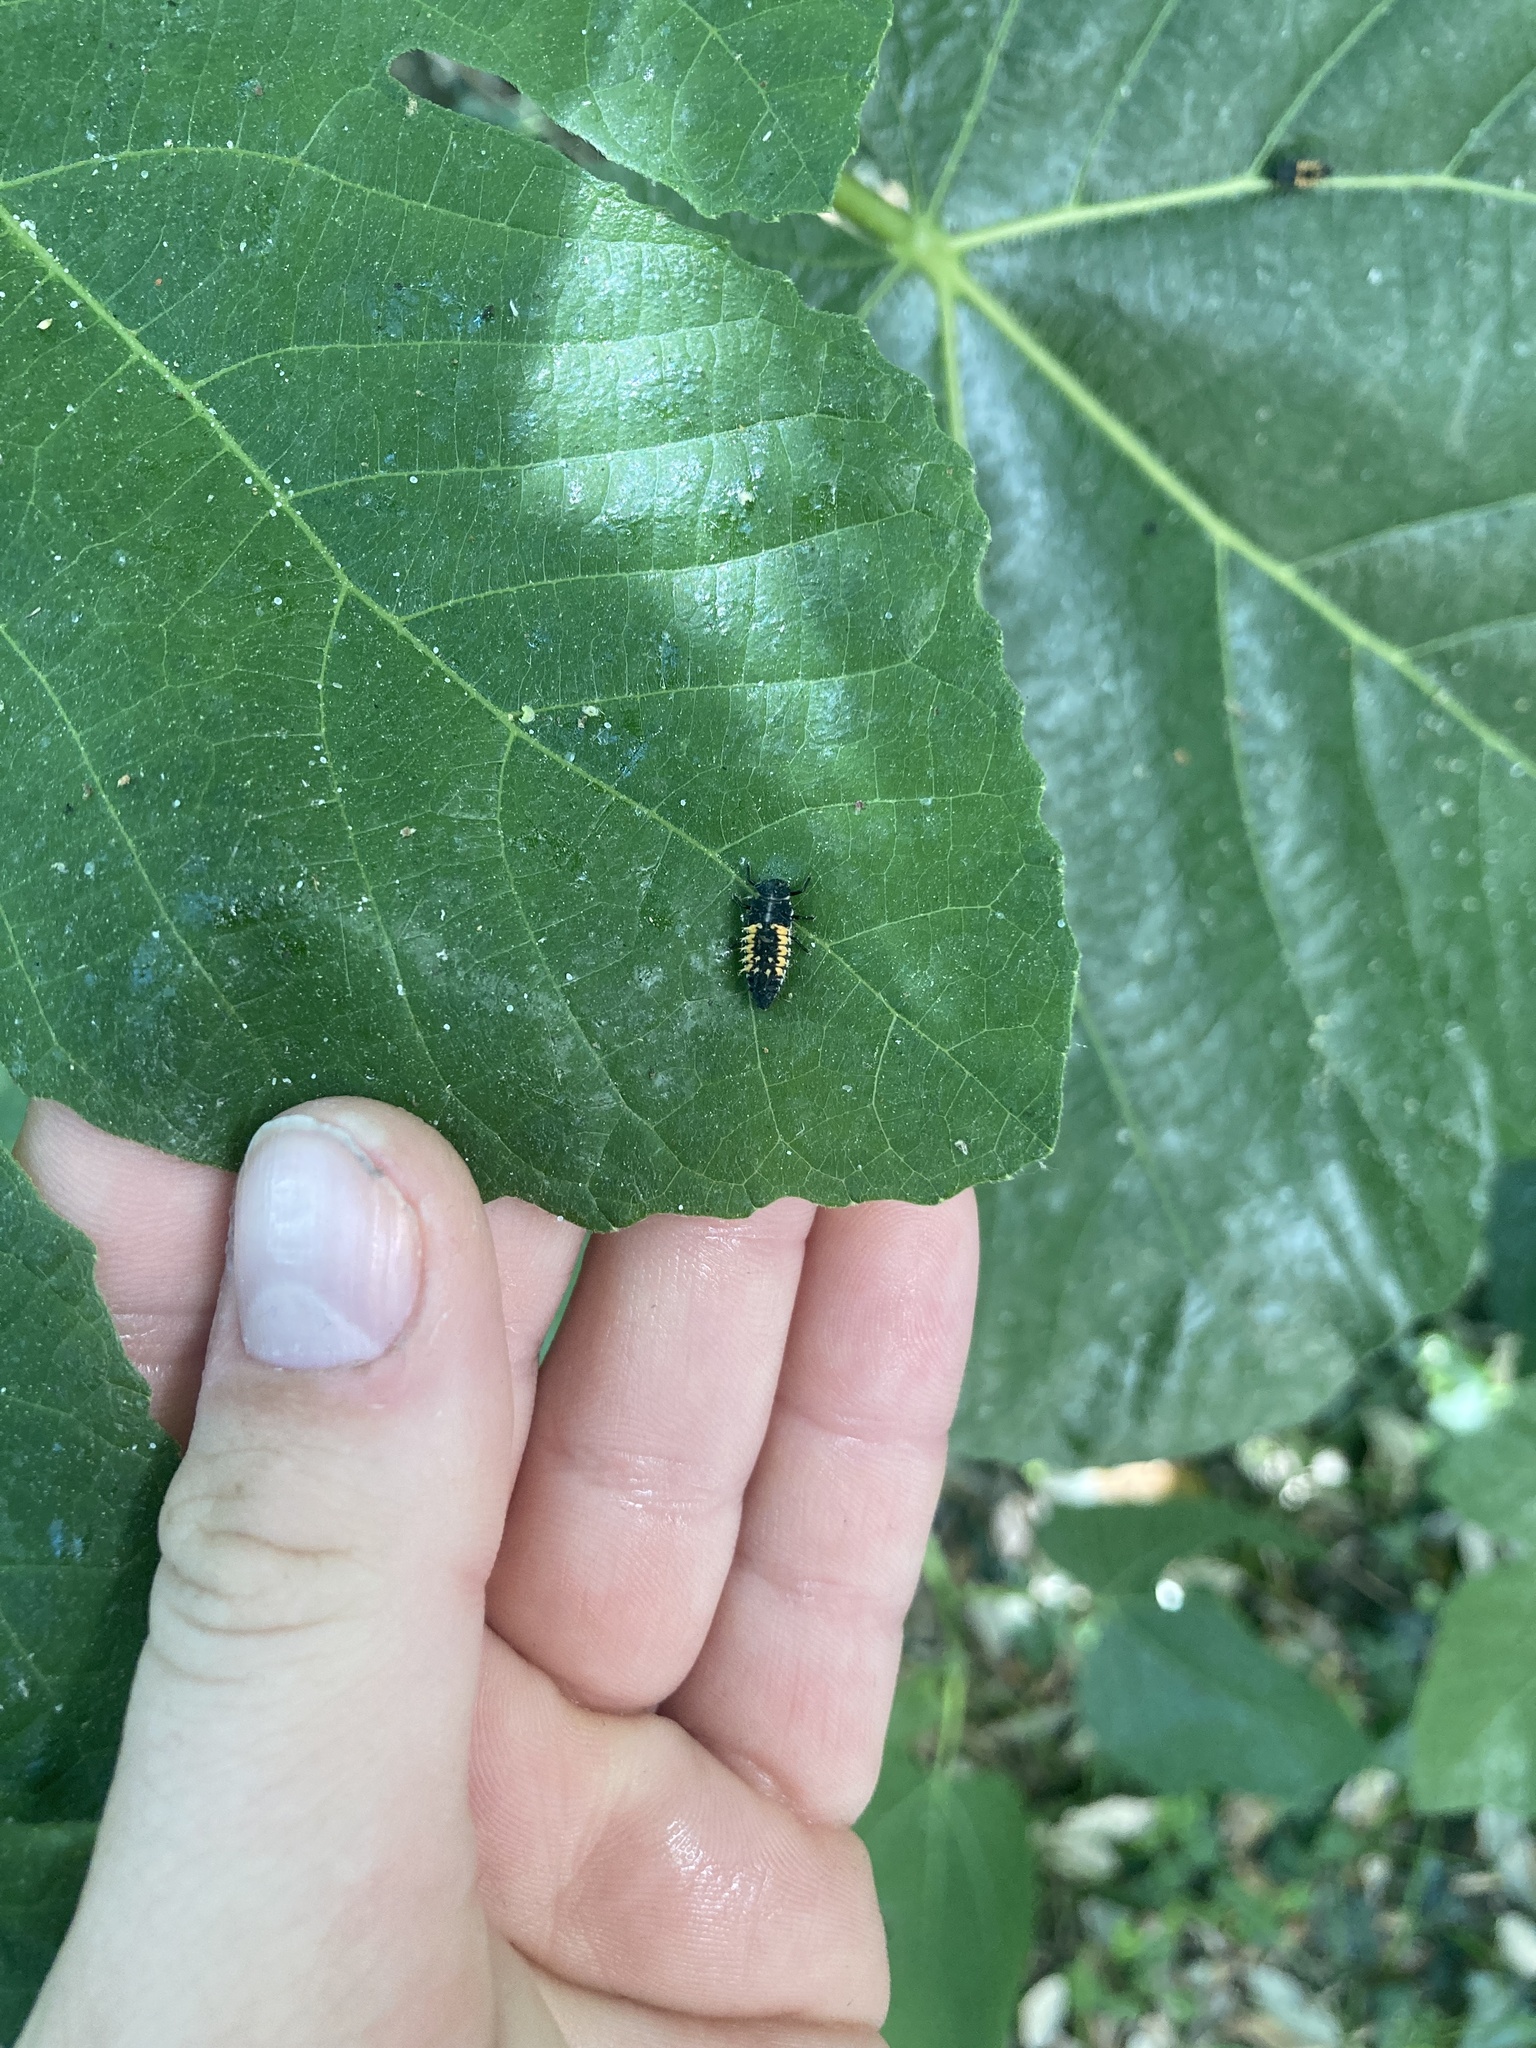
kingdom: Animalia
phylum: Arthropoda
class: Insecta
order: Coleoptera
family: Coccinellidae
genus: Harmonia
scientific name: Harmonia axyridis
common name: Harlequin ladybird
